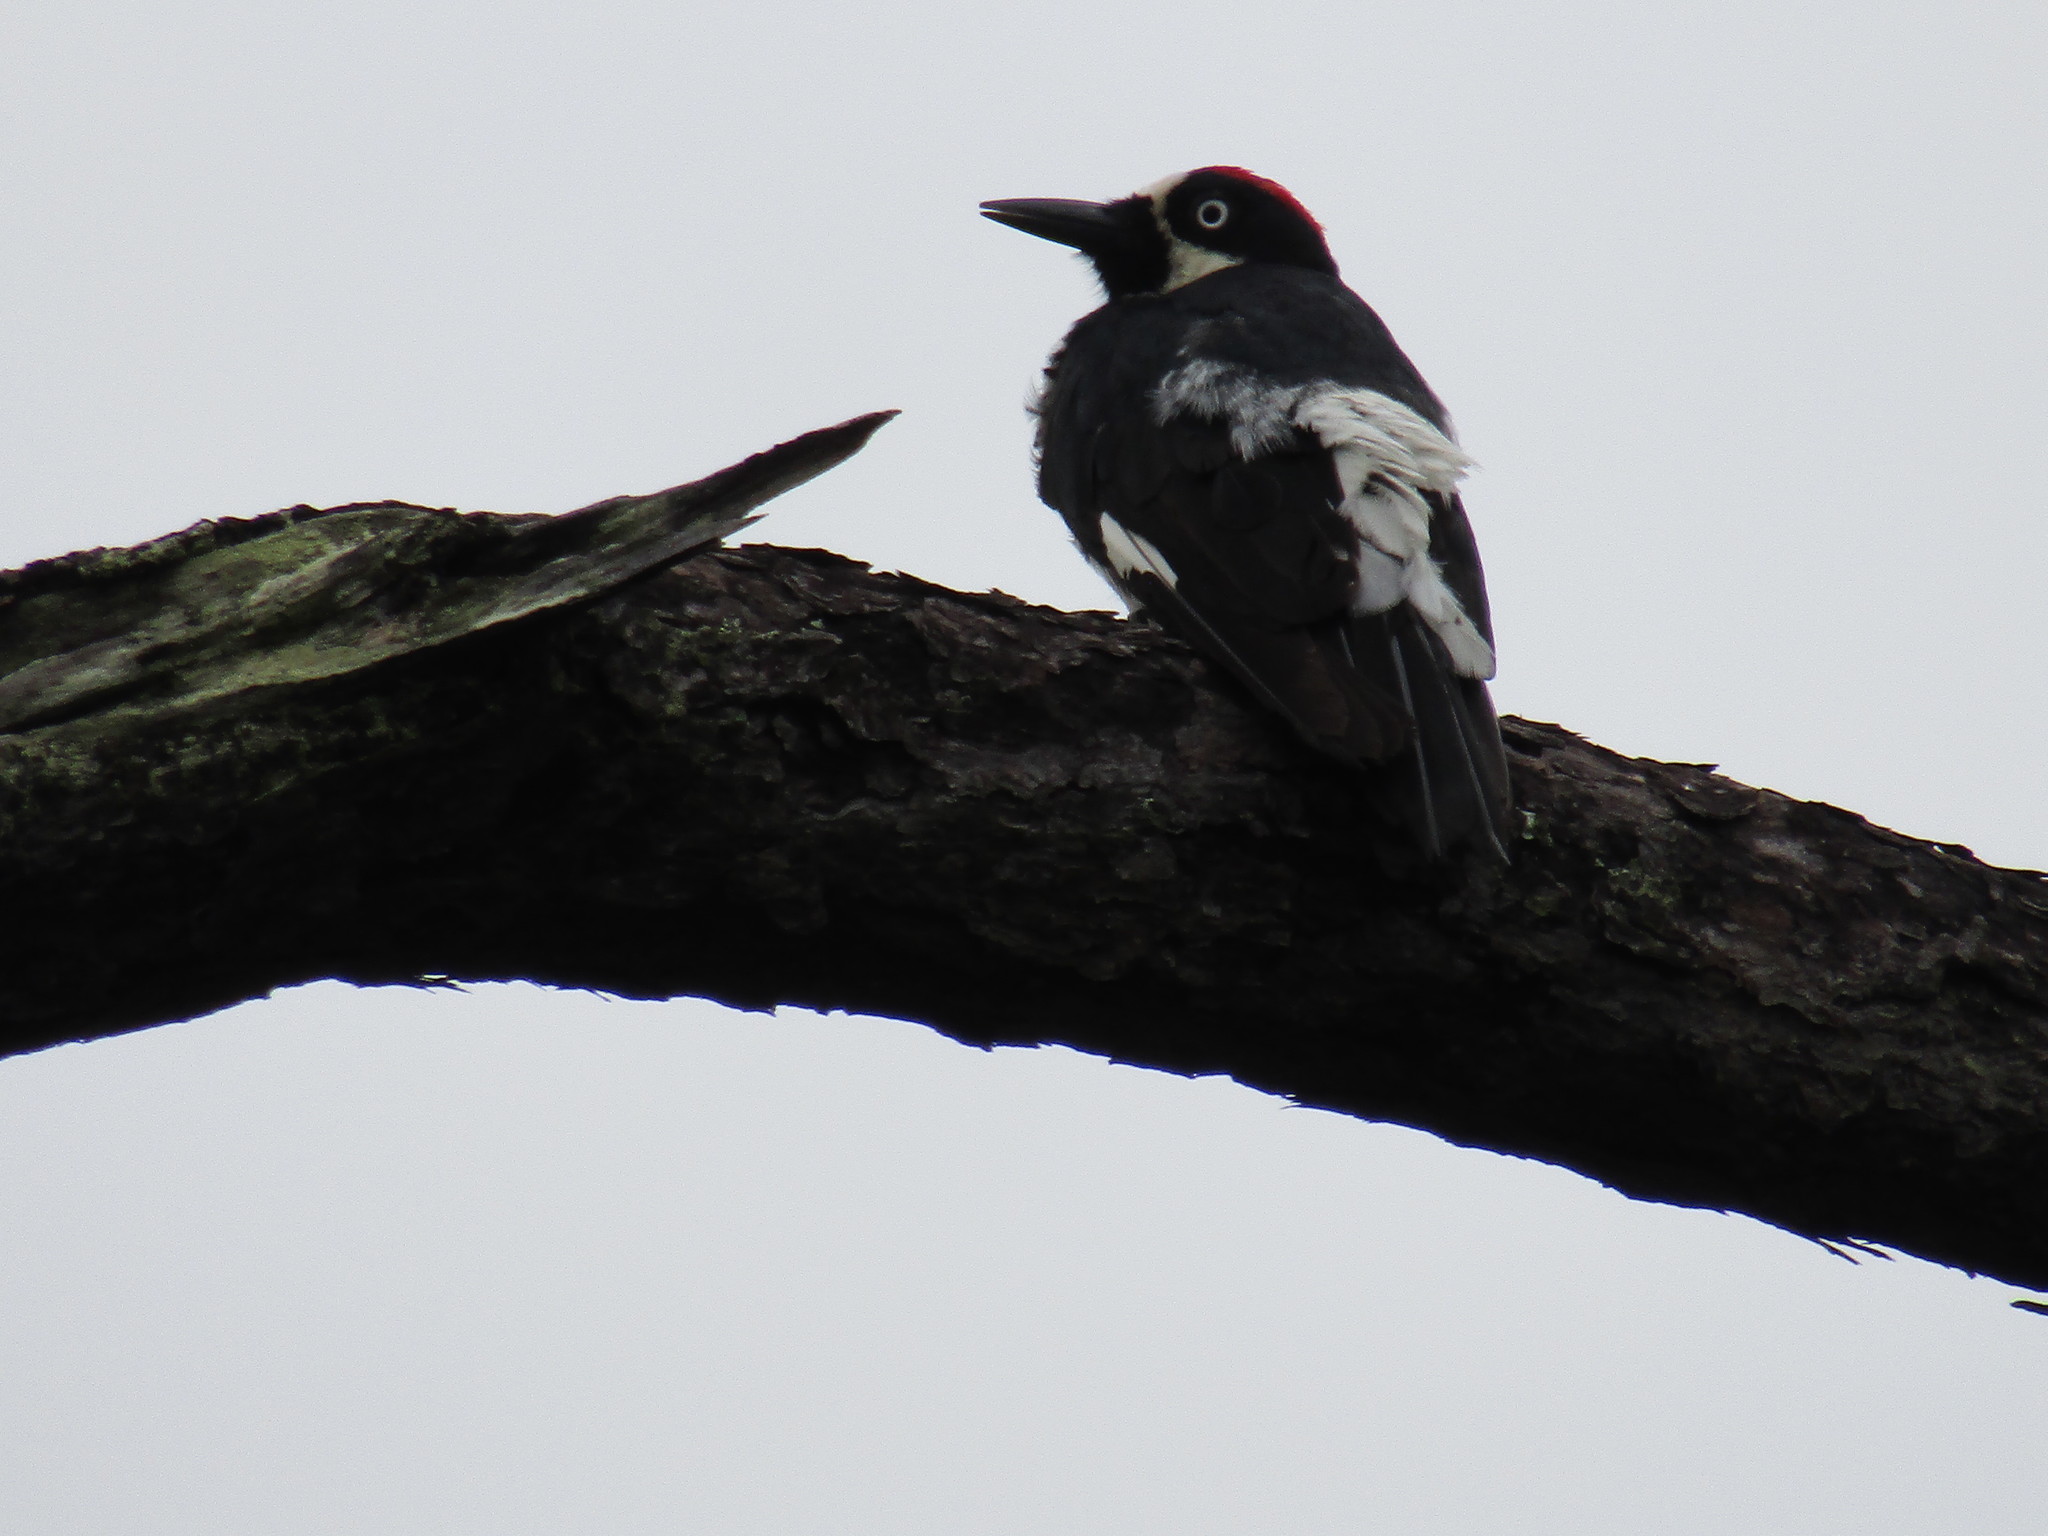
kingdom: Animalia
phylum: Chordata
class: Aves
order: Piciformes
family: Picidae
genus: Melanerpes
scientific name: Melanerpes formicivorus
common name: Acorn woodpecker
